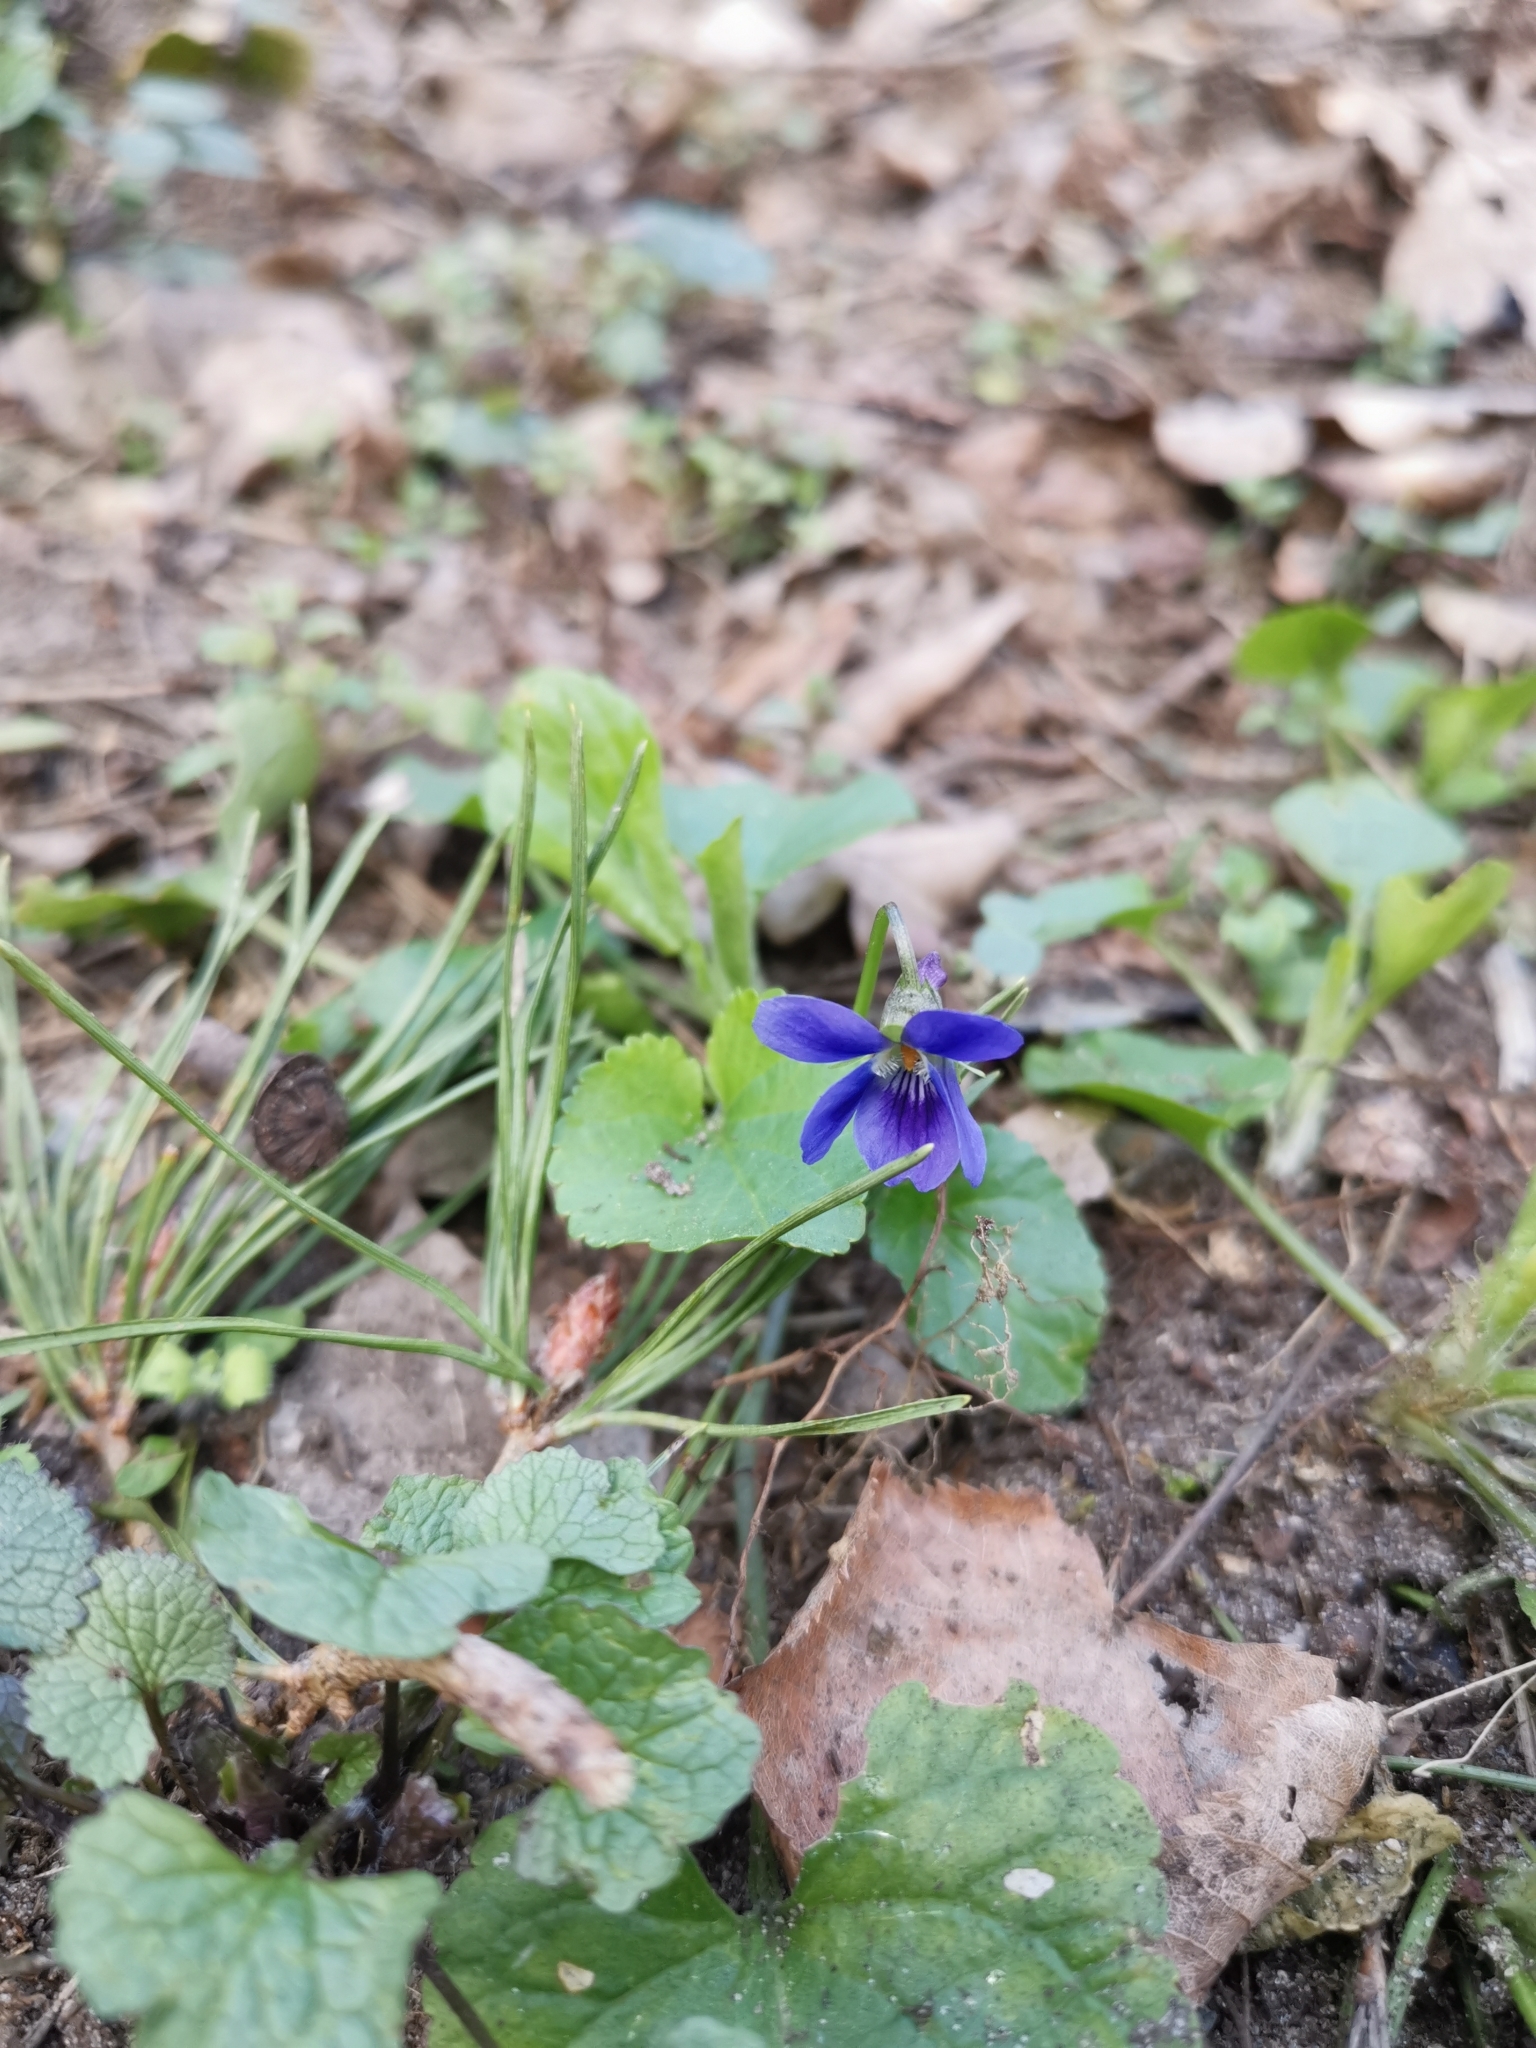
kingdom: Plantae
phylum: Tracheophyta
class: Magnoliopsida
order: Malpighiales
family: Violaceae
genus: Viola
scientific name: Viola odorata
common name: Sweet violet
